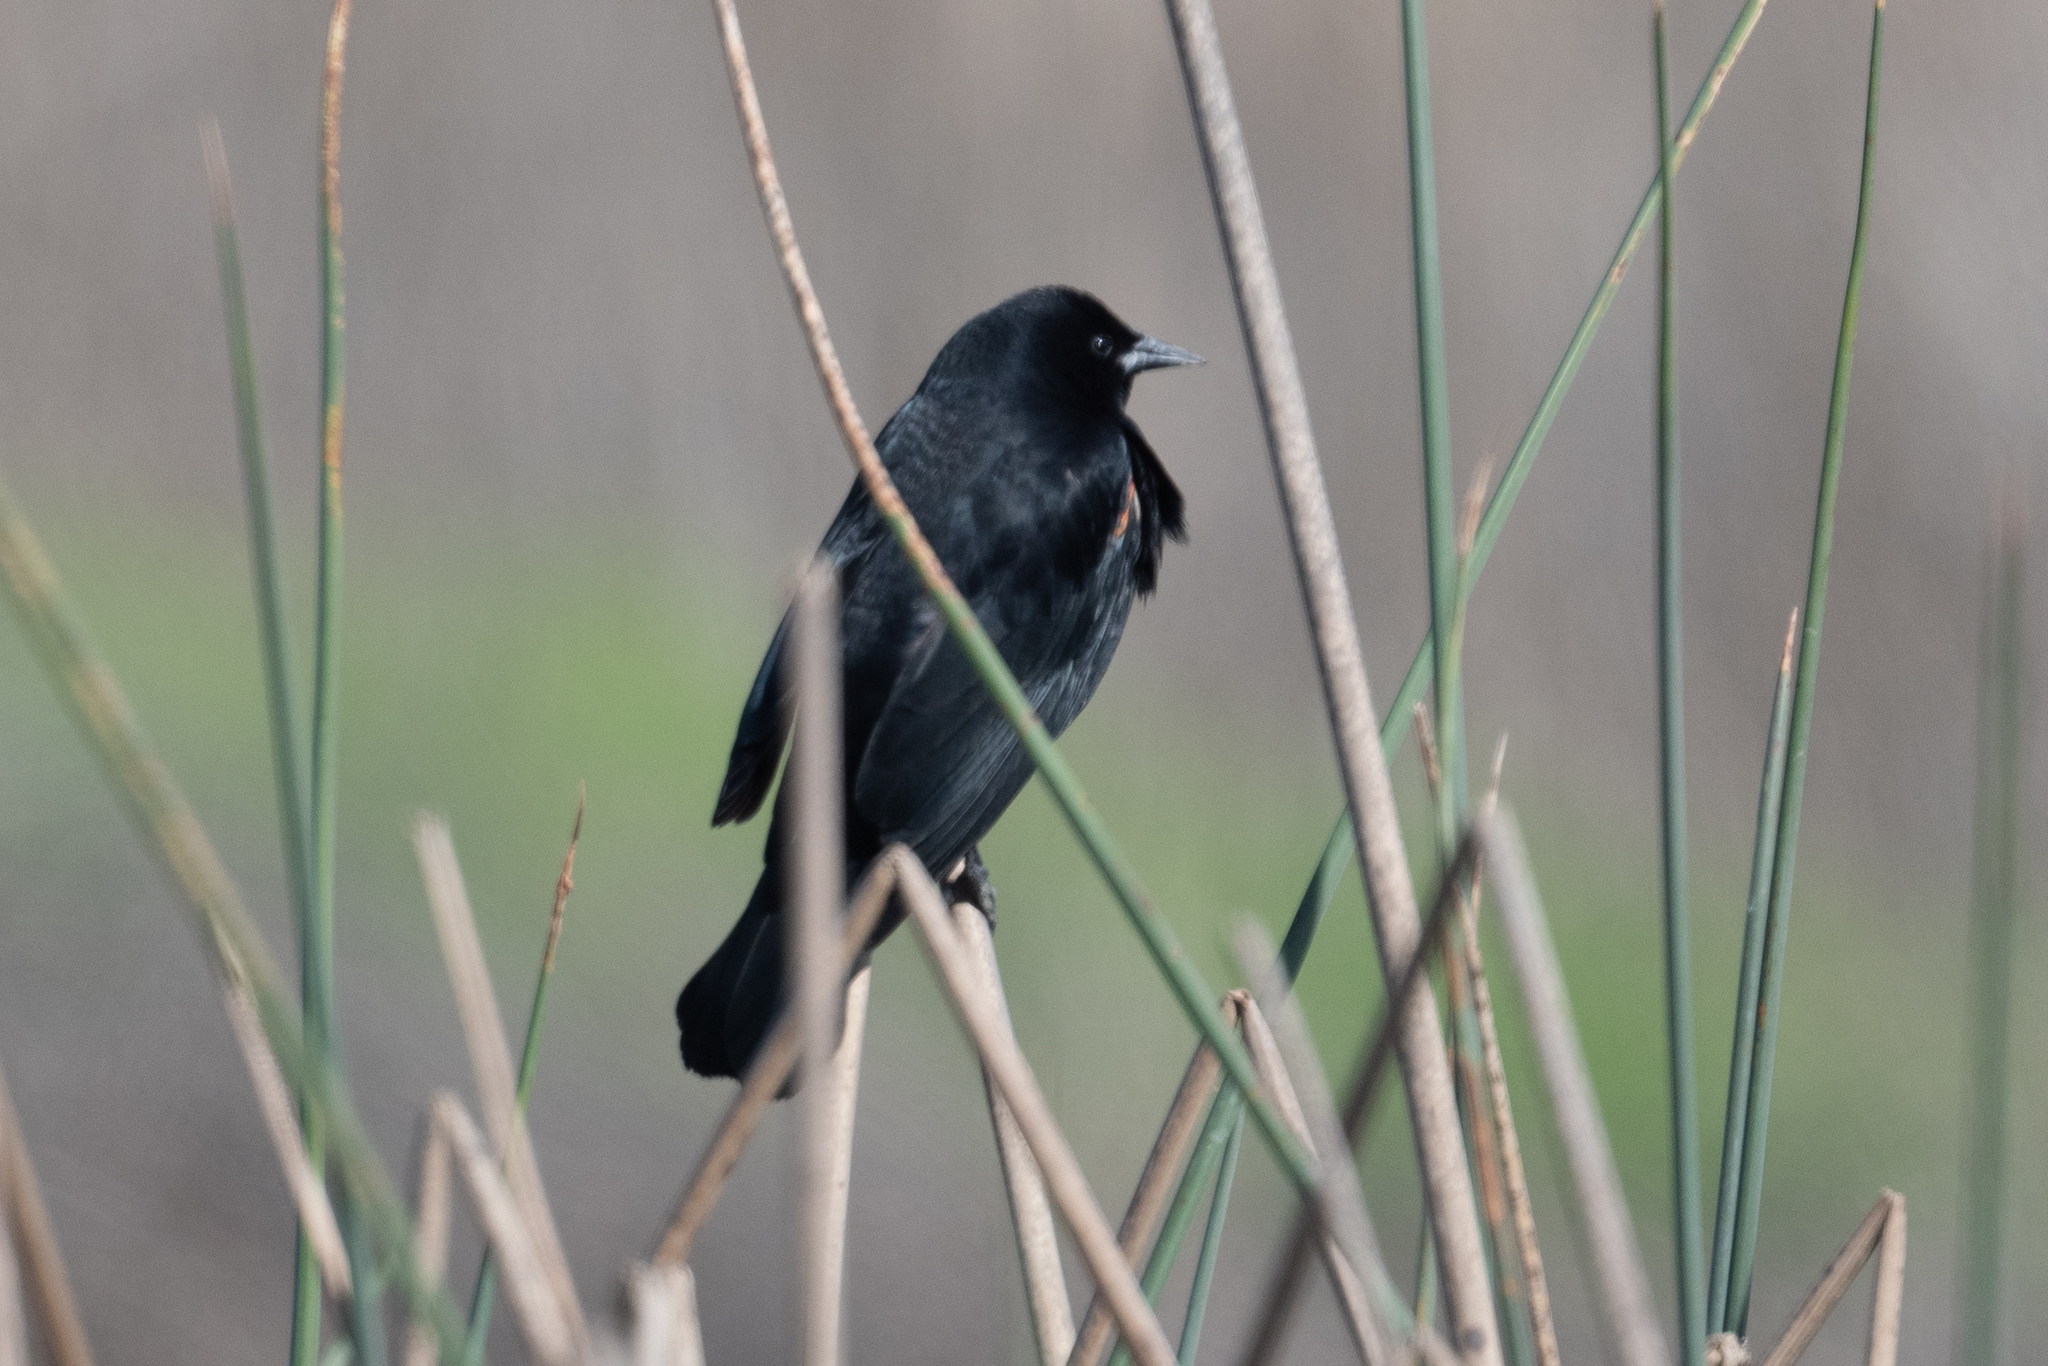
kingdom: Animalia
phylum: Chordata
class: Aves
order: Passeriformes
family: Icteridae
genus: Agelaius
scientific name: Agelaius phoeniceus
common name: Red-winged blackbird
